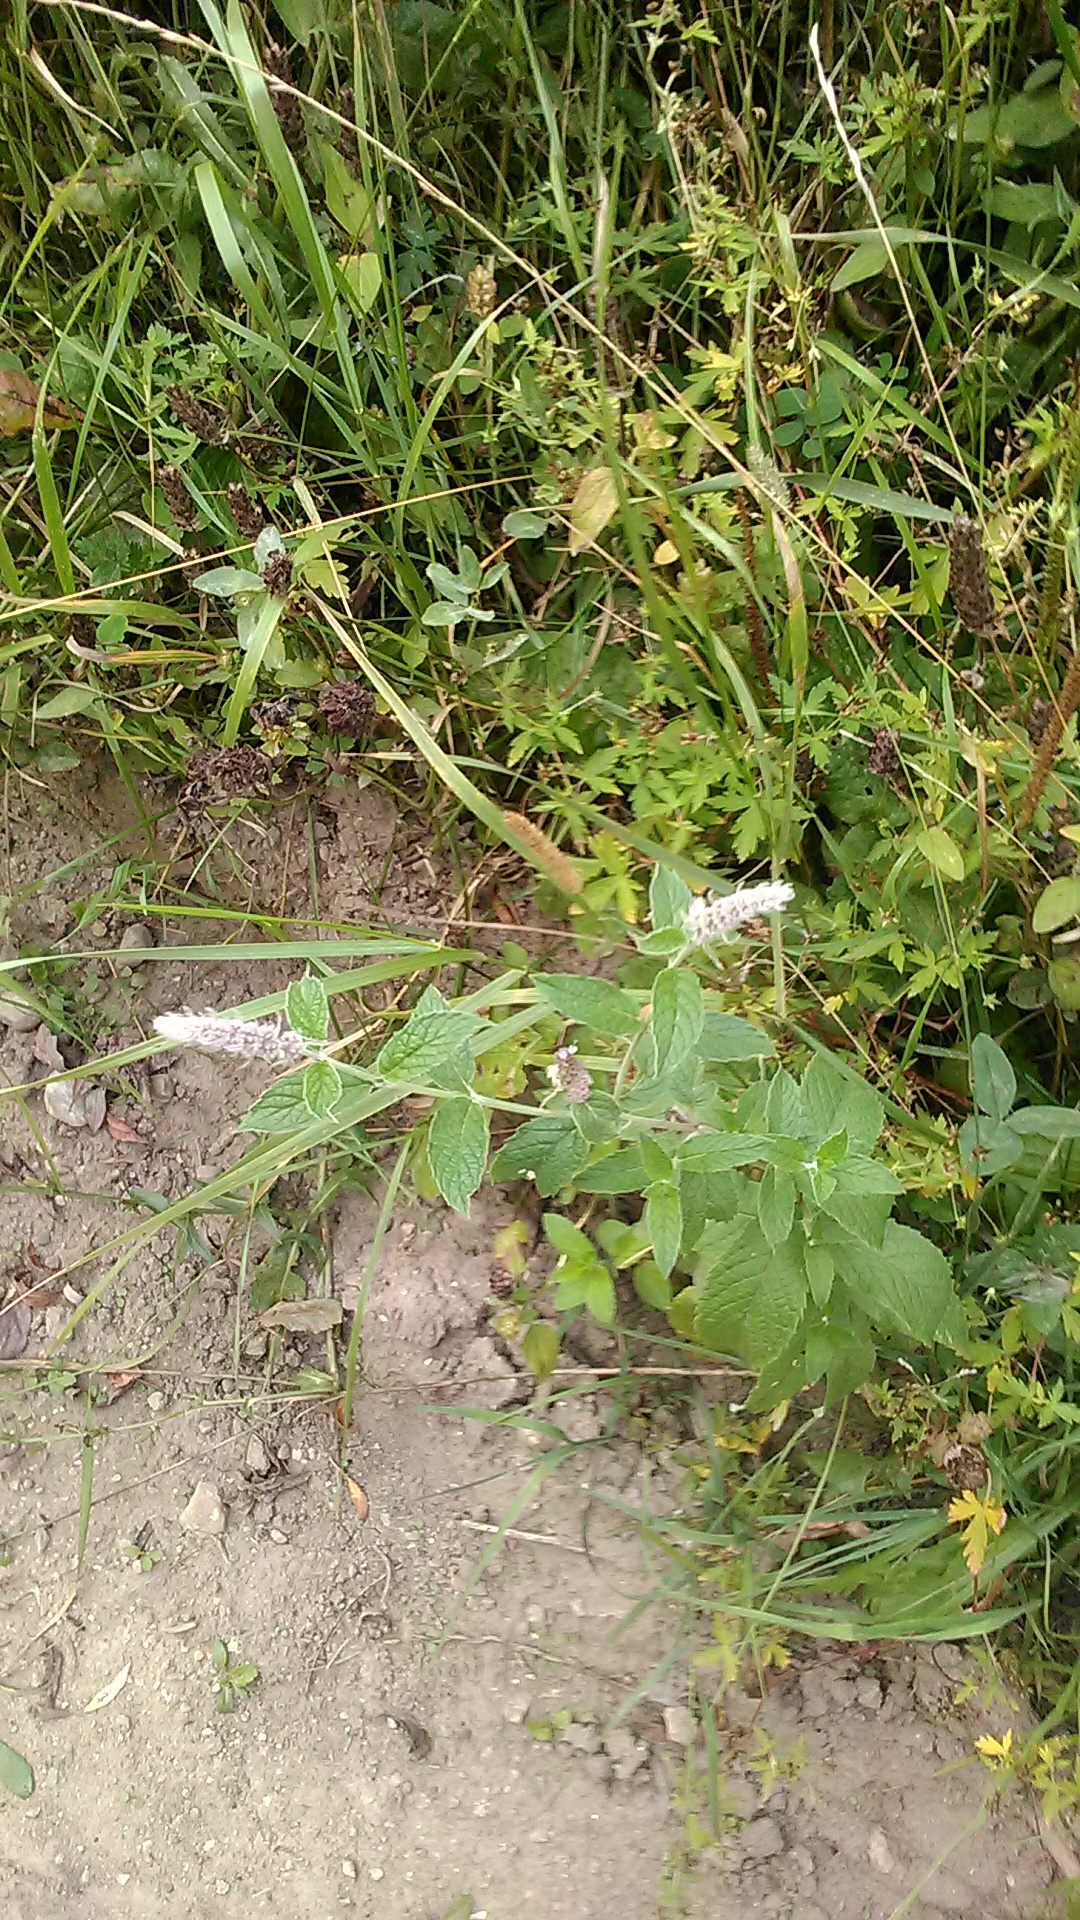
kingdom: Plantae
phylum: Tracheophyta
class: Magnoliopsida
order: Lamiales
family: Lamiaceae
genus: Mentha
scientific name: Mentha longifolia
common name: Horse mint
